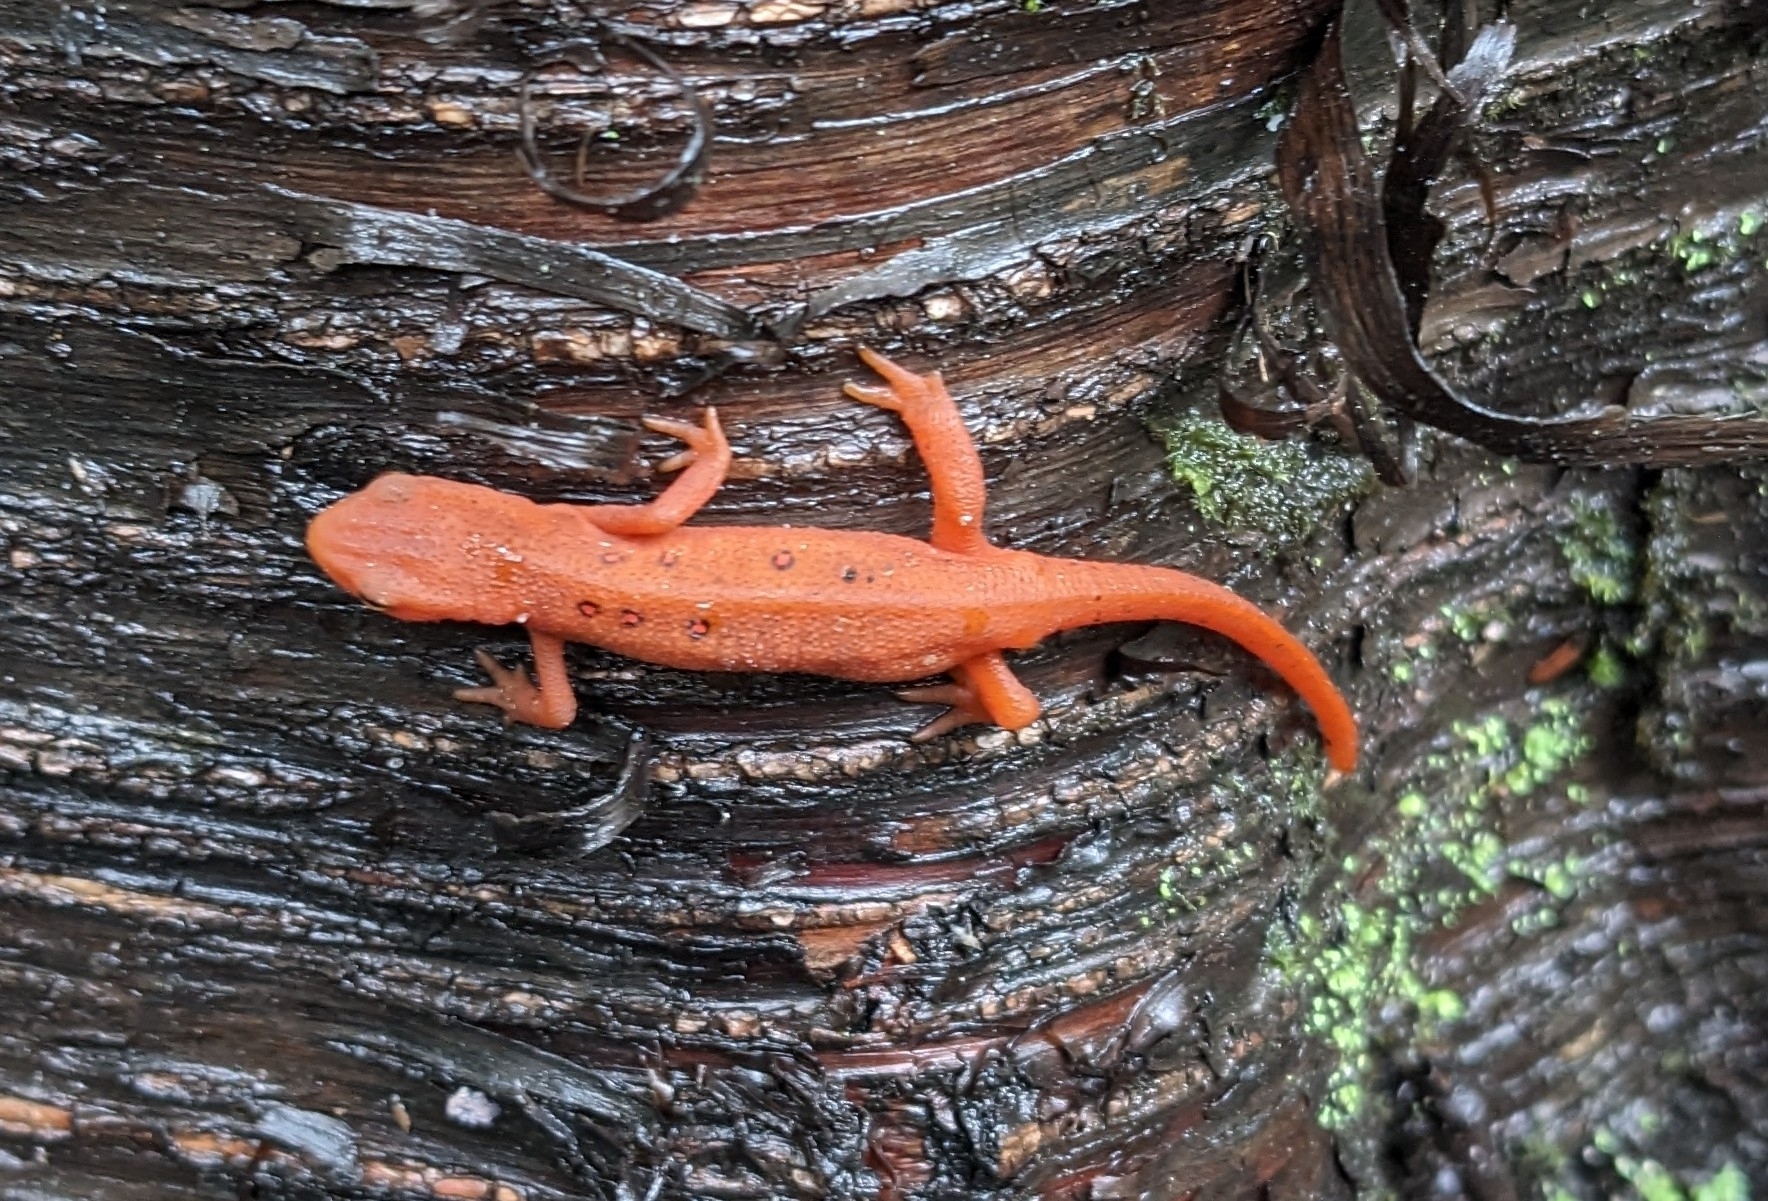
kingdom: Animalia
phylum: Chordata
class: Amphibia
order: Caudata
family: Salamandridae
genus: Notophthalmus
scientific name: Notophthalmus viridescens
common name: Eastern newt
